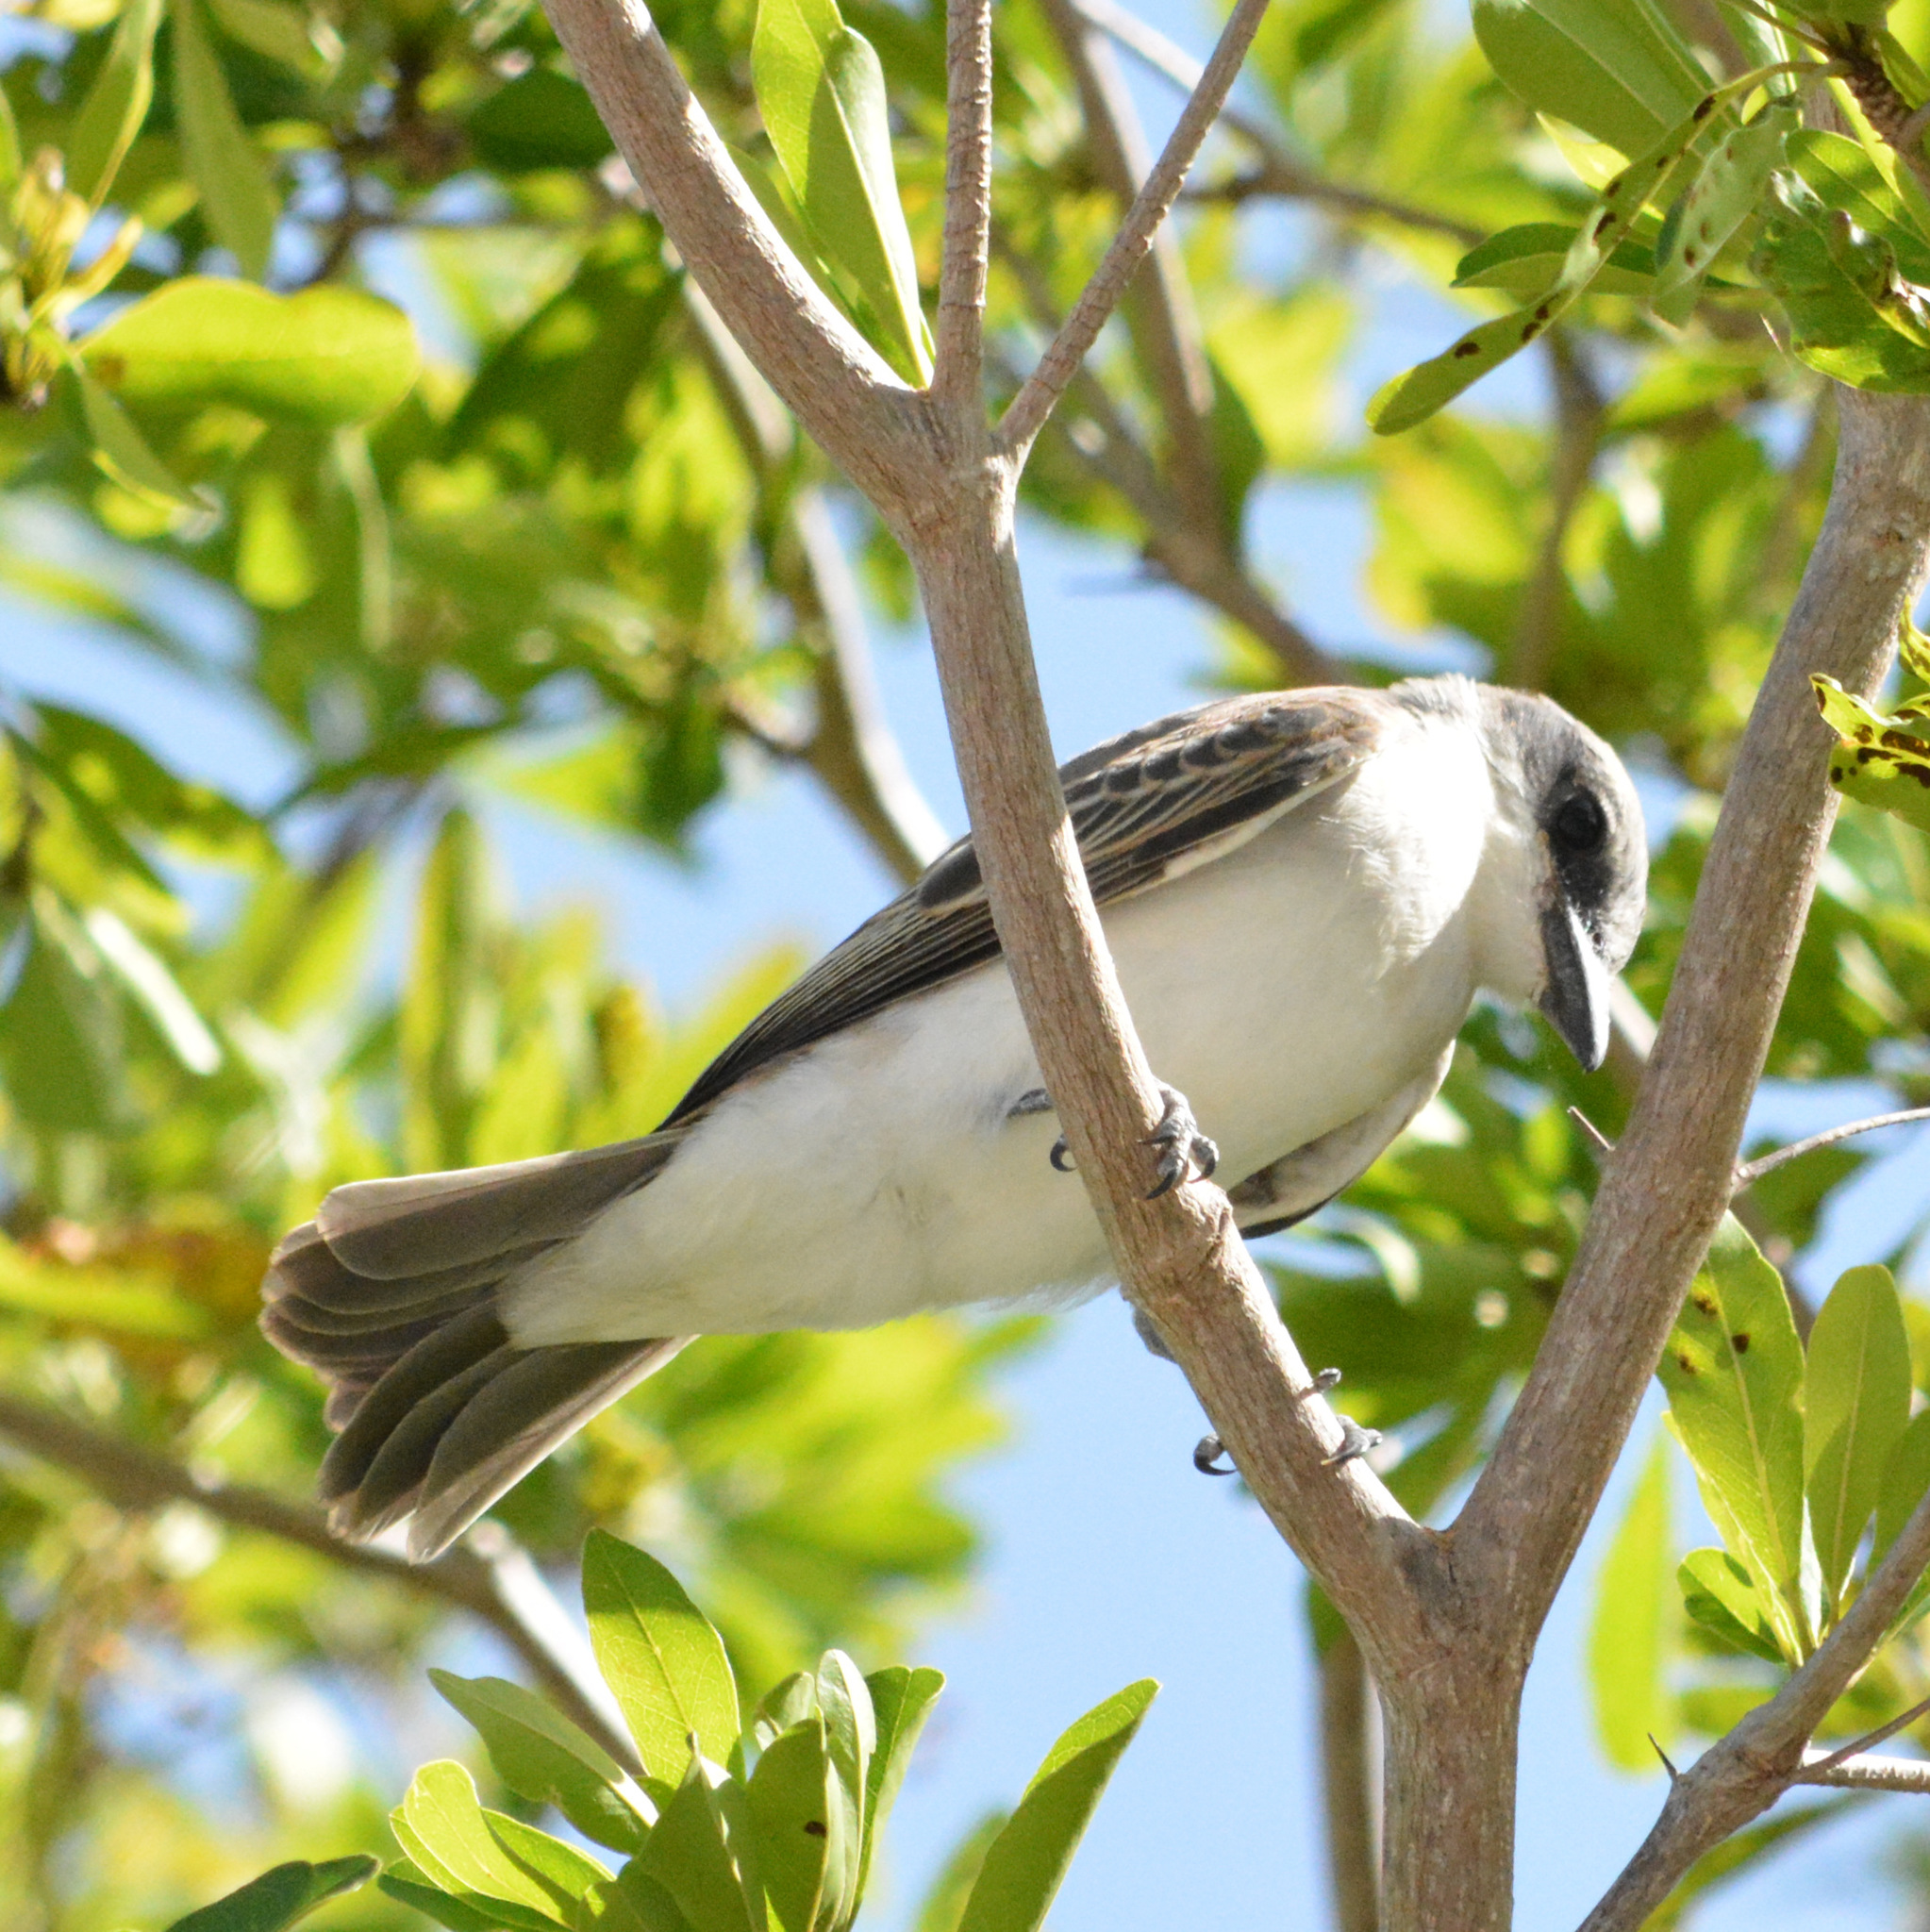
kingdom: Animalia
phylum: Chordata
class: Aves
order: Passeriformes
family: Tyrannidae
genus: Tyrannus
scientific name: Tyrannus dominicensis
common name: Gray kingbird
